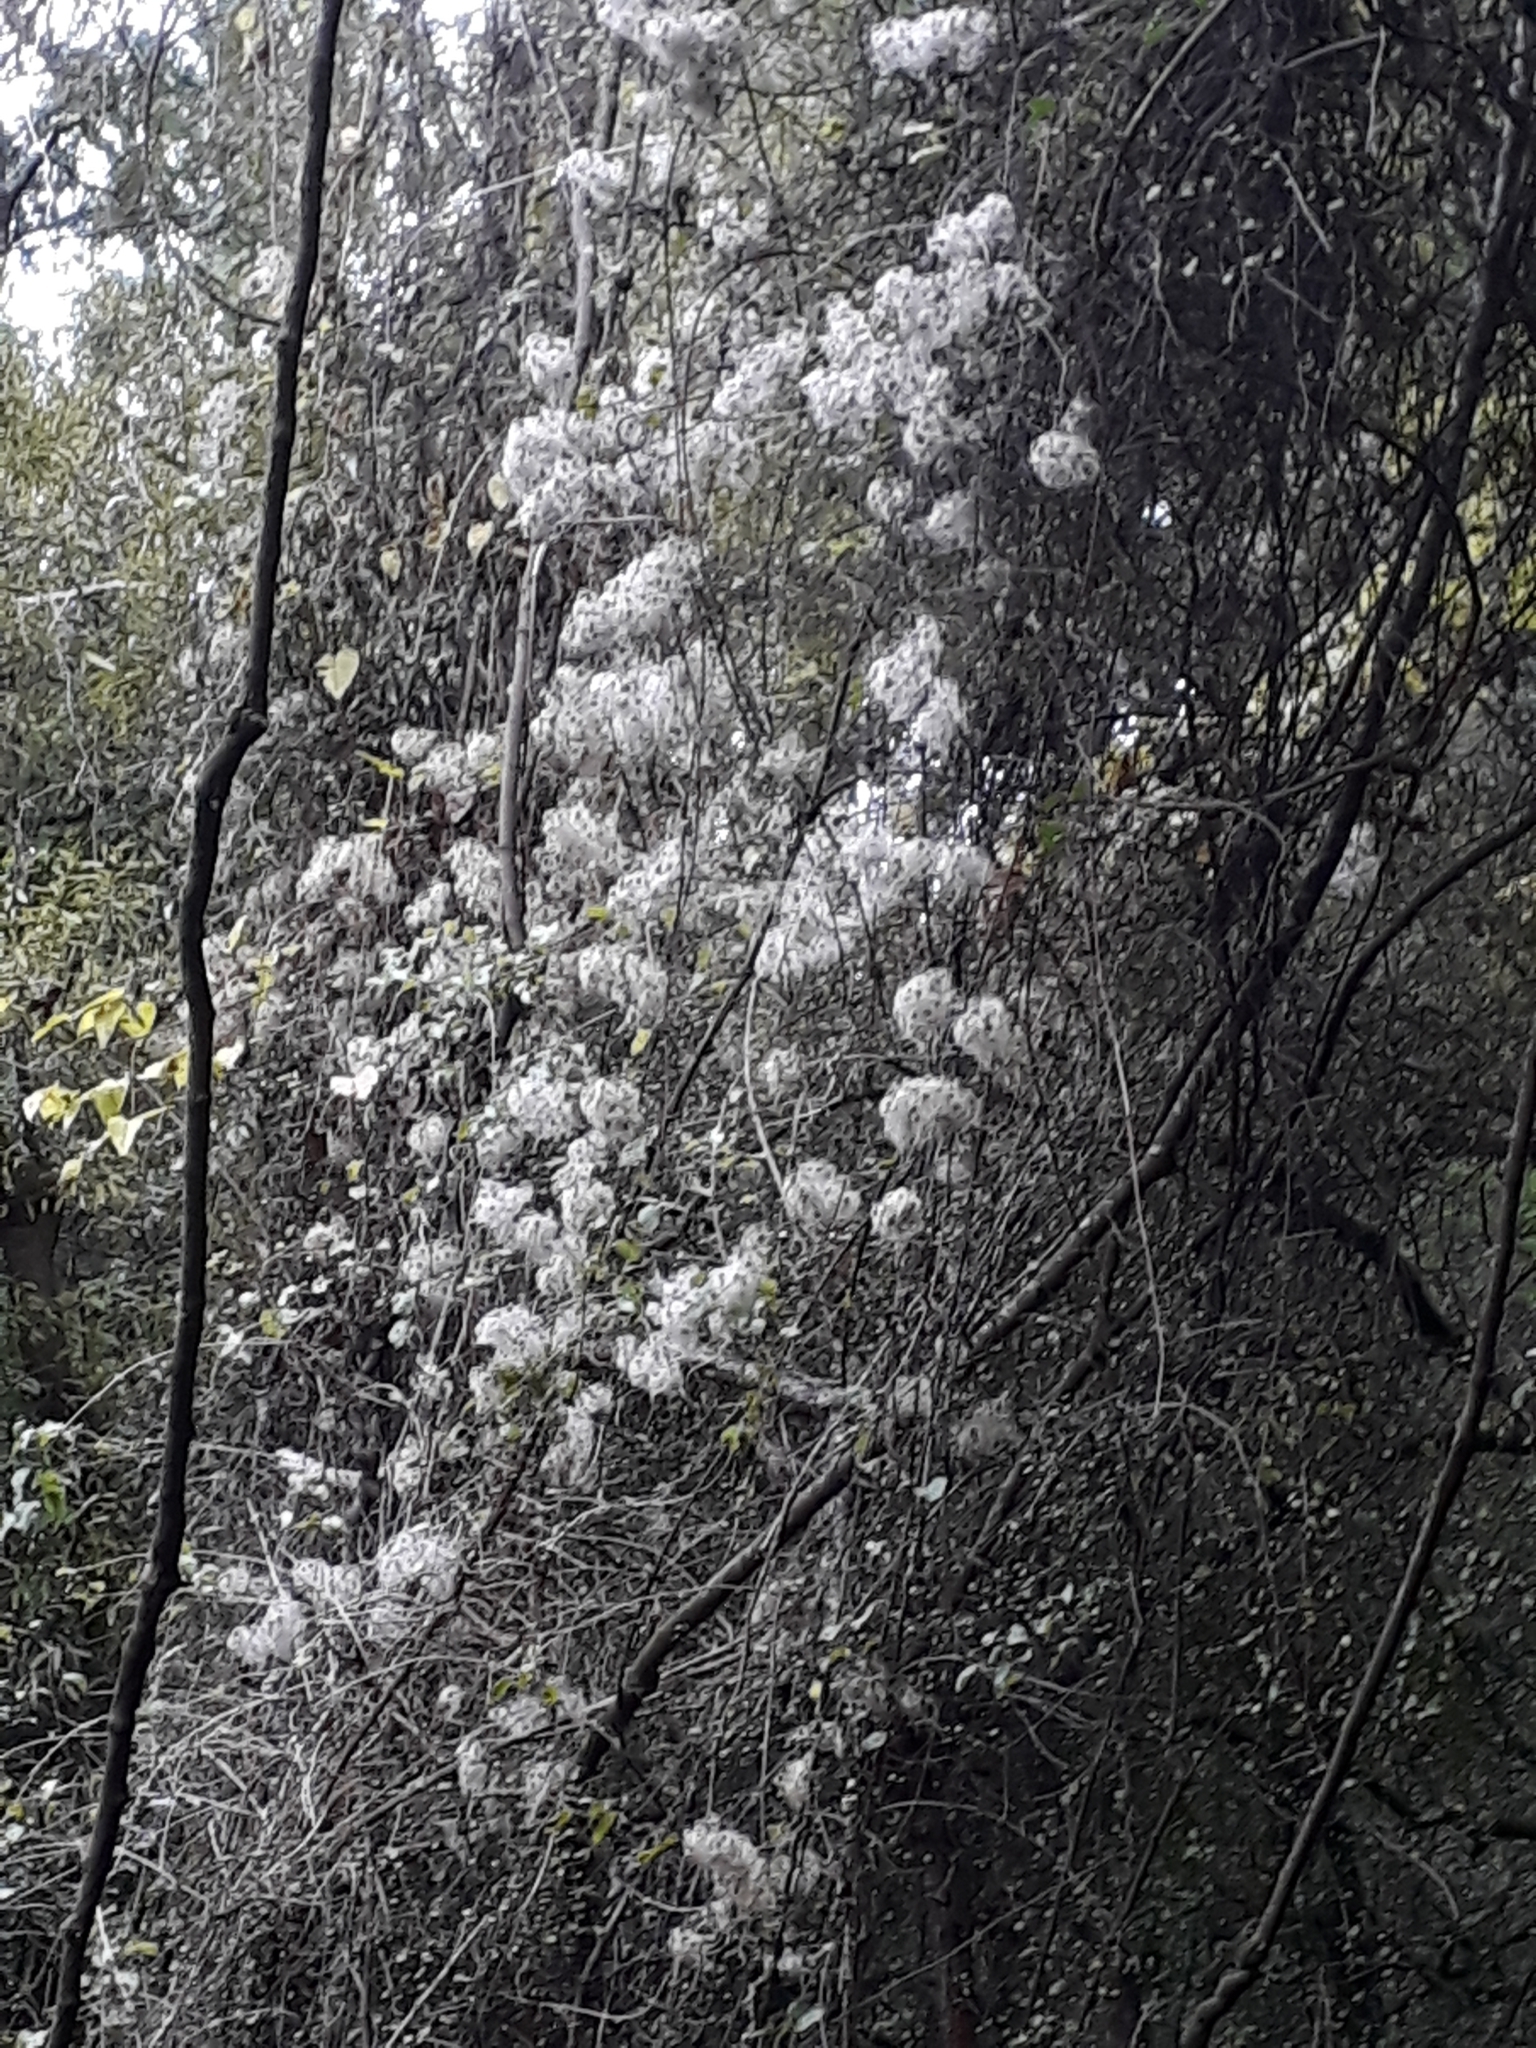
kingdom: Plantae
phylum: Tracheophyta
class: Magnoliopsida
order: Ranunculales
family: Ranunculaceae
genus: Clematis
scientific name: Clematis vitalba
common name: Evergreen clematis
